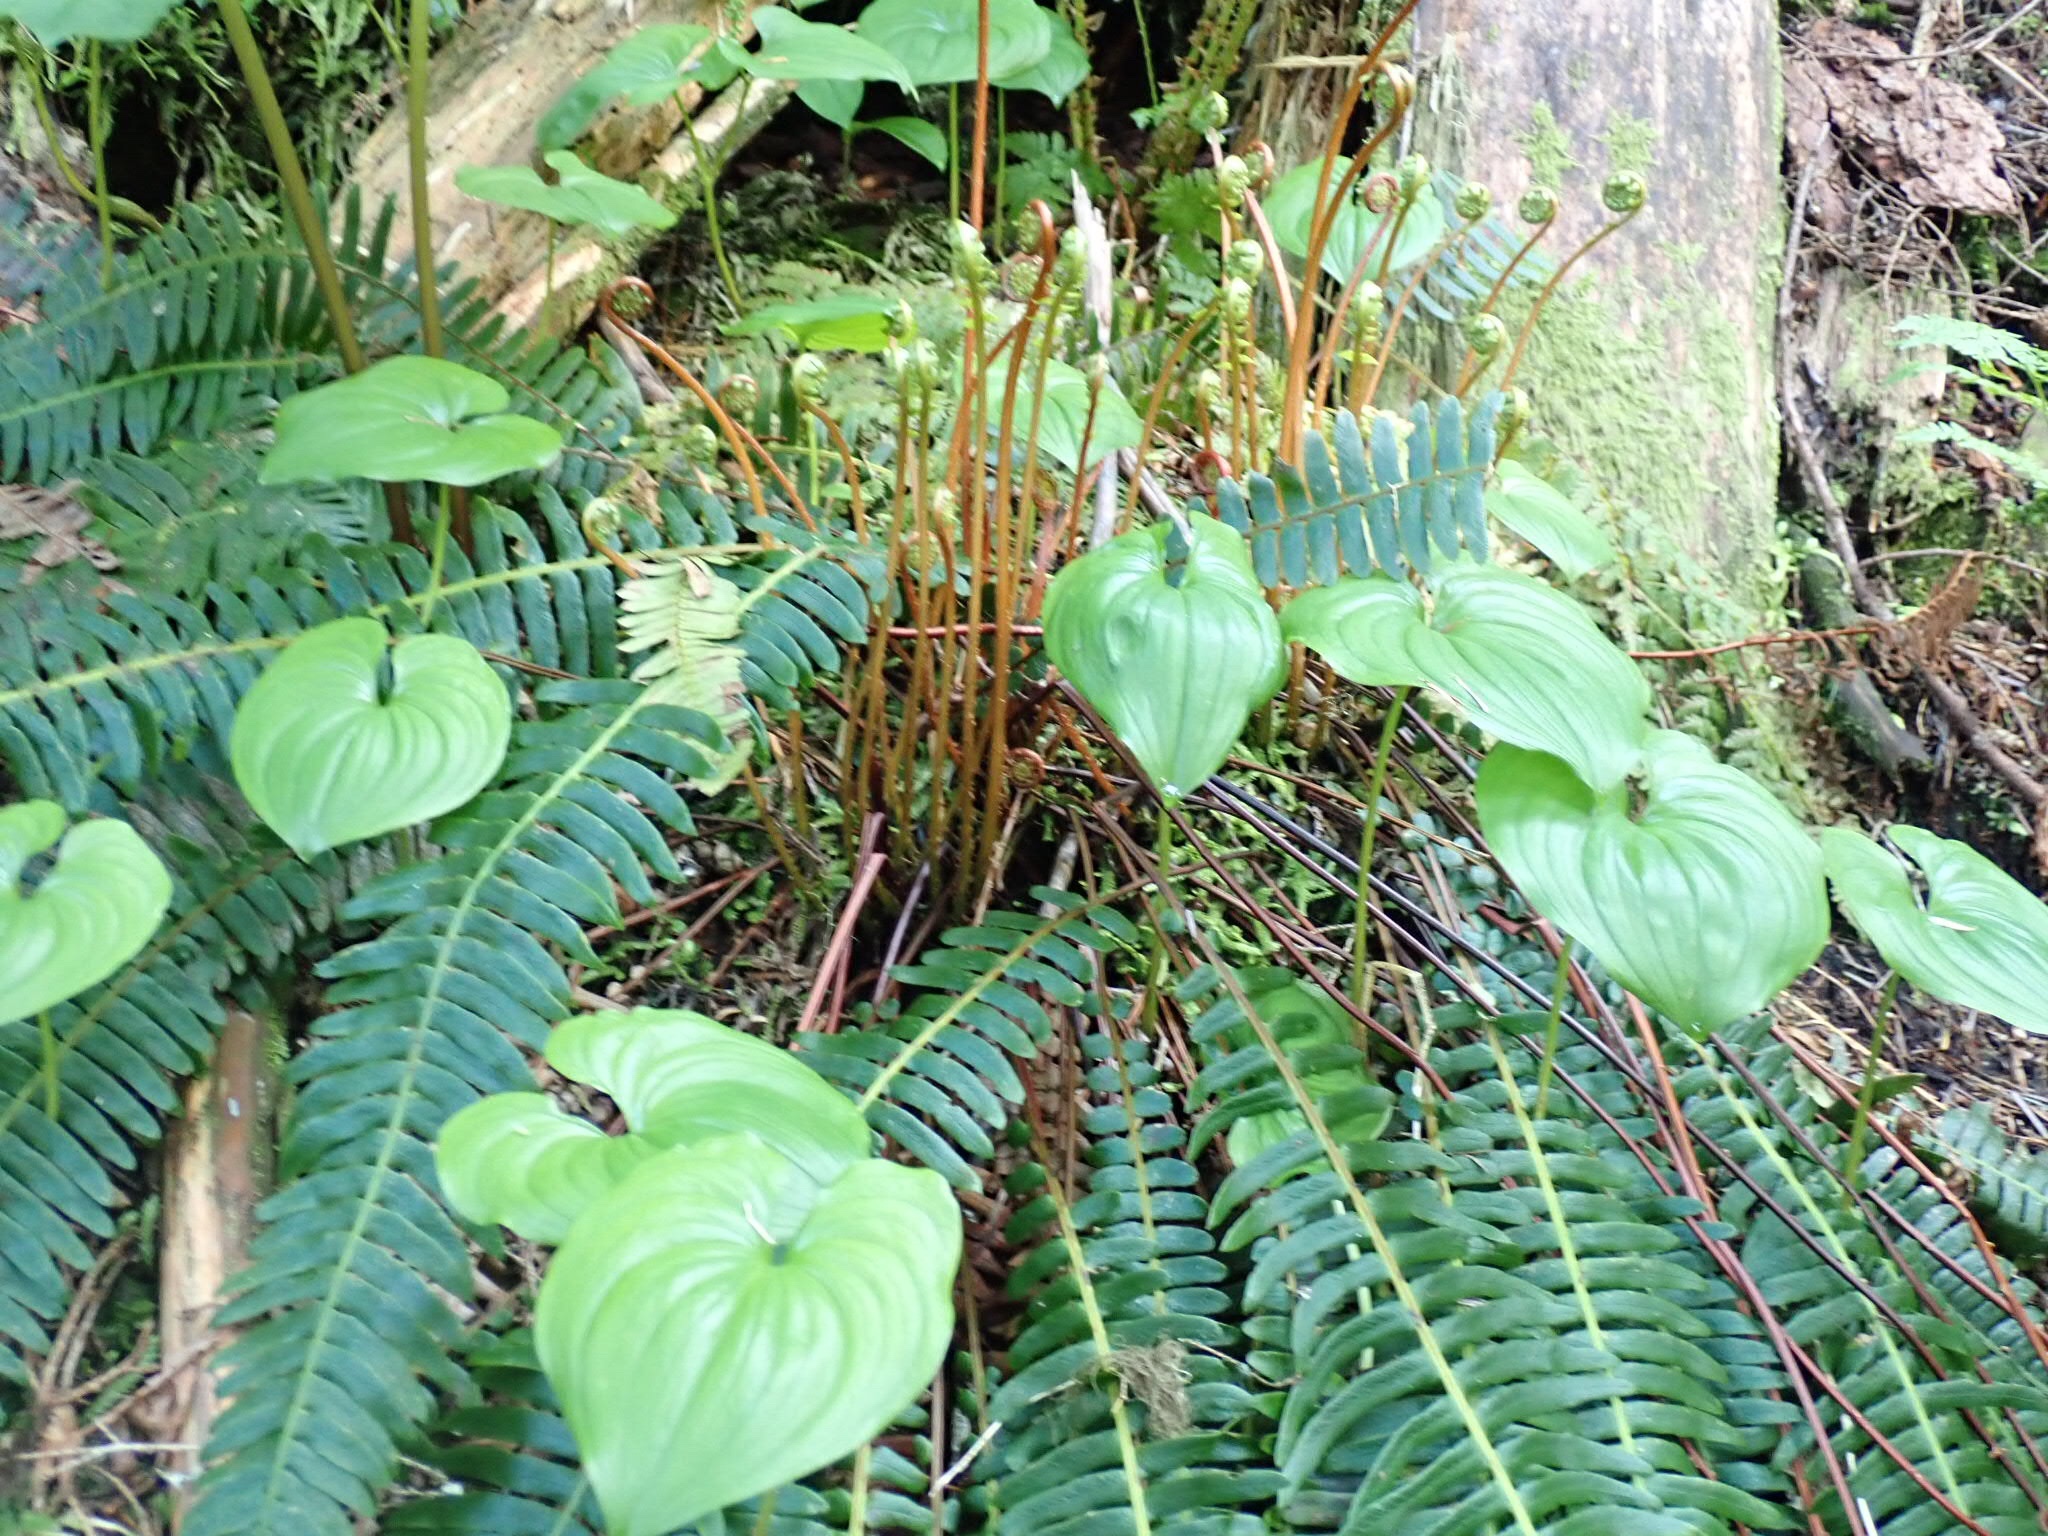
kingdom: Plantae
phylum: Tracheophyta
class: Liliopsida
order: Asparagales
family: Asparagaceae
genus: Maianthemum
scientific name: Maianthemum dilatatum
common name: False lily-of-the-valley
